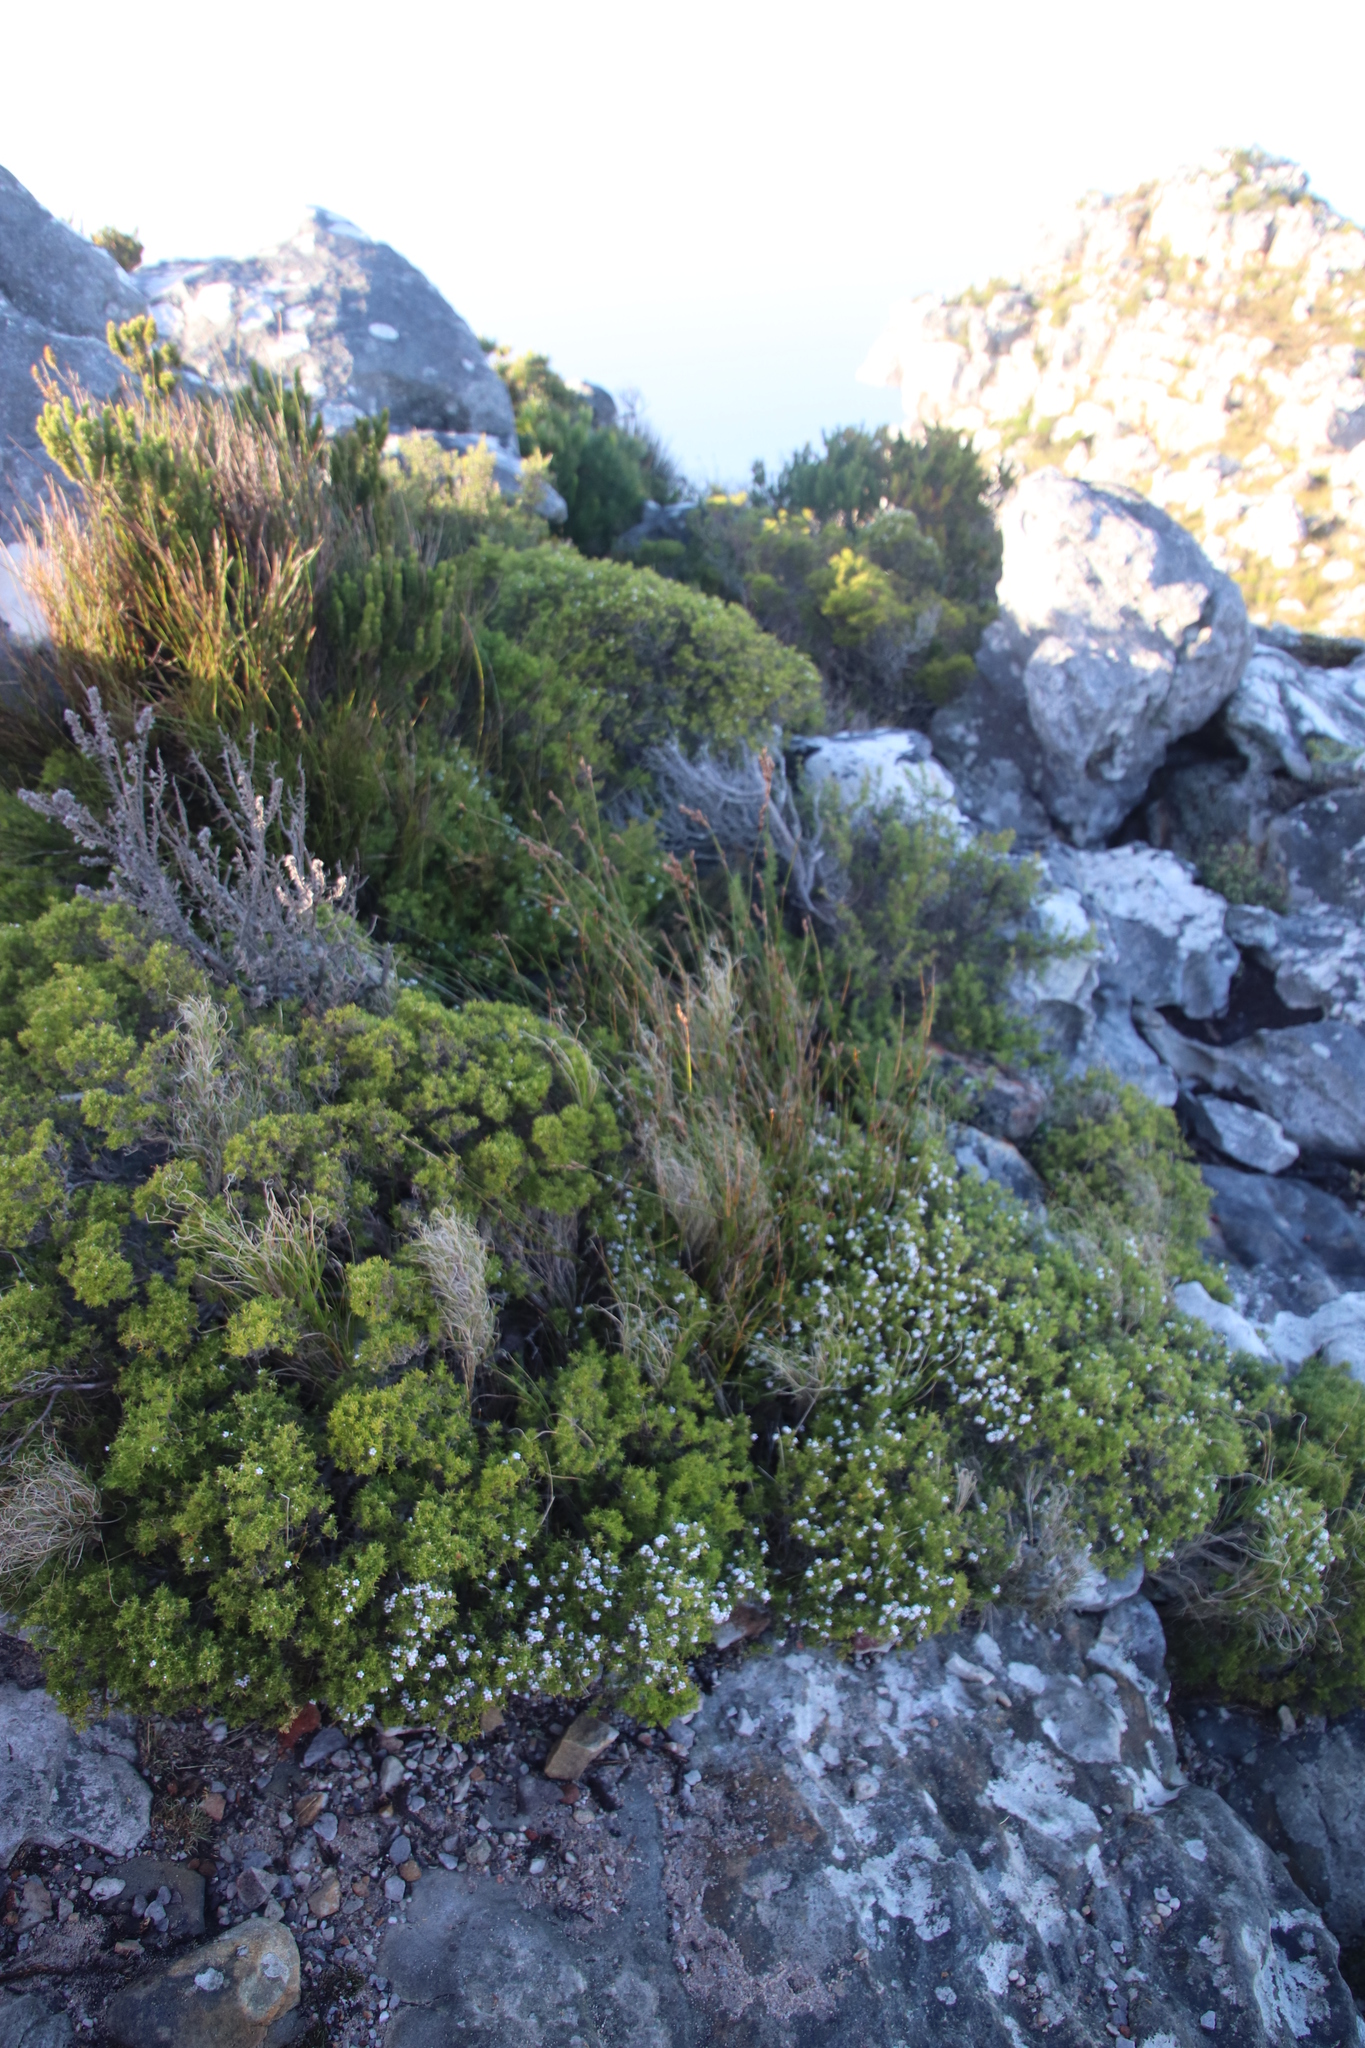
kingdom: Plantae
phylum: Tracheophyta
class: Magnoliopsida
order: Sapindales
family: Rutaceae
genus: Coleonema
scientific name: Coleonema album
